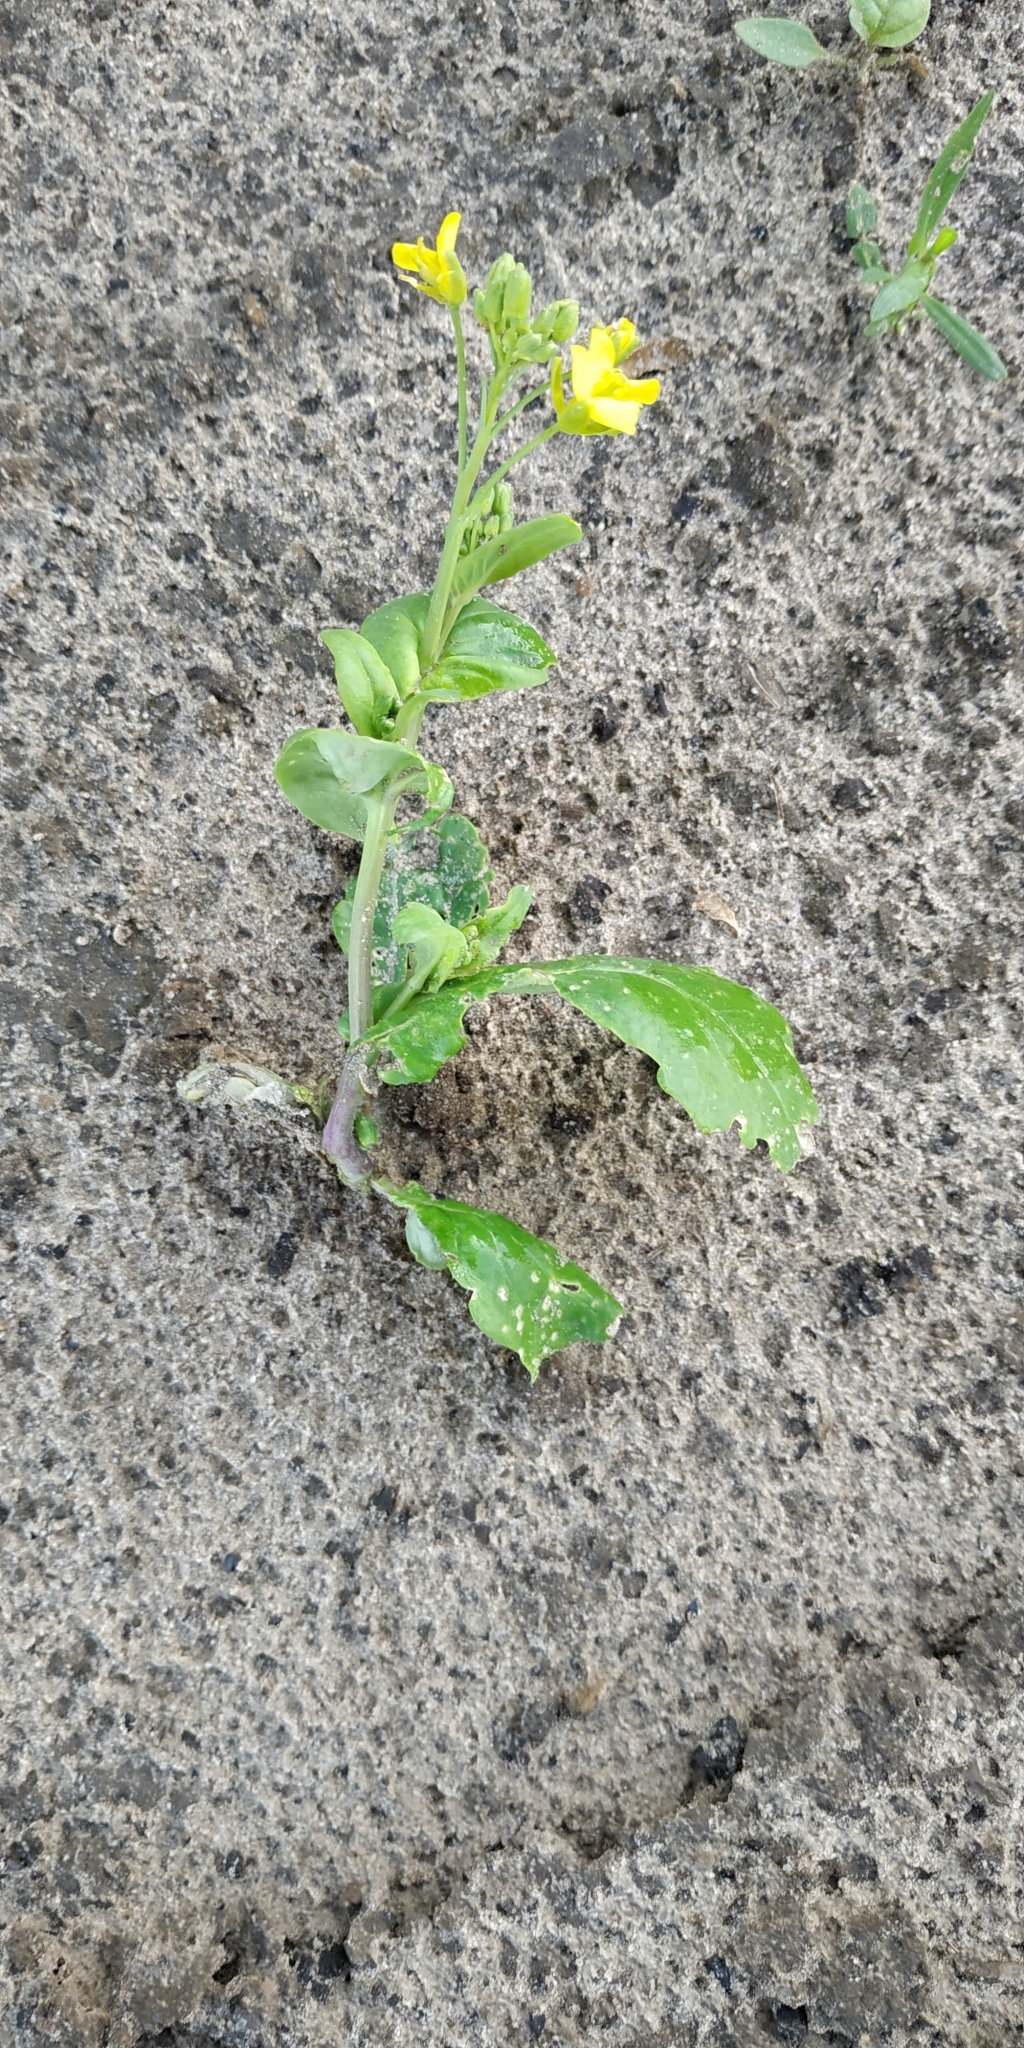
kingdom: Plantae
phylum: Tracheophyta
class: Magnoliopsida
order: Brassicales
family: Brassicaceae
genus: Brassica
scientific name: Brassica rapa
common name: Field mustard
